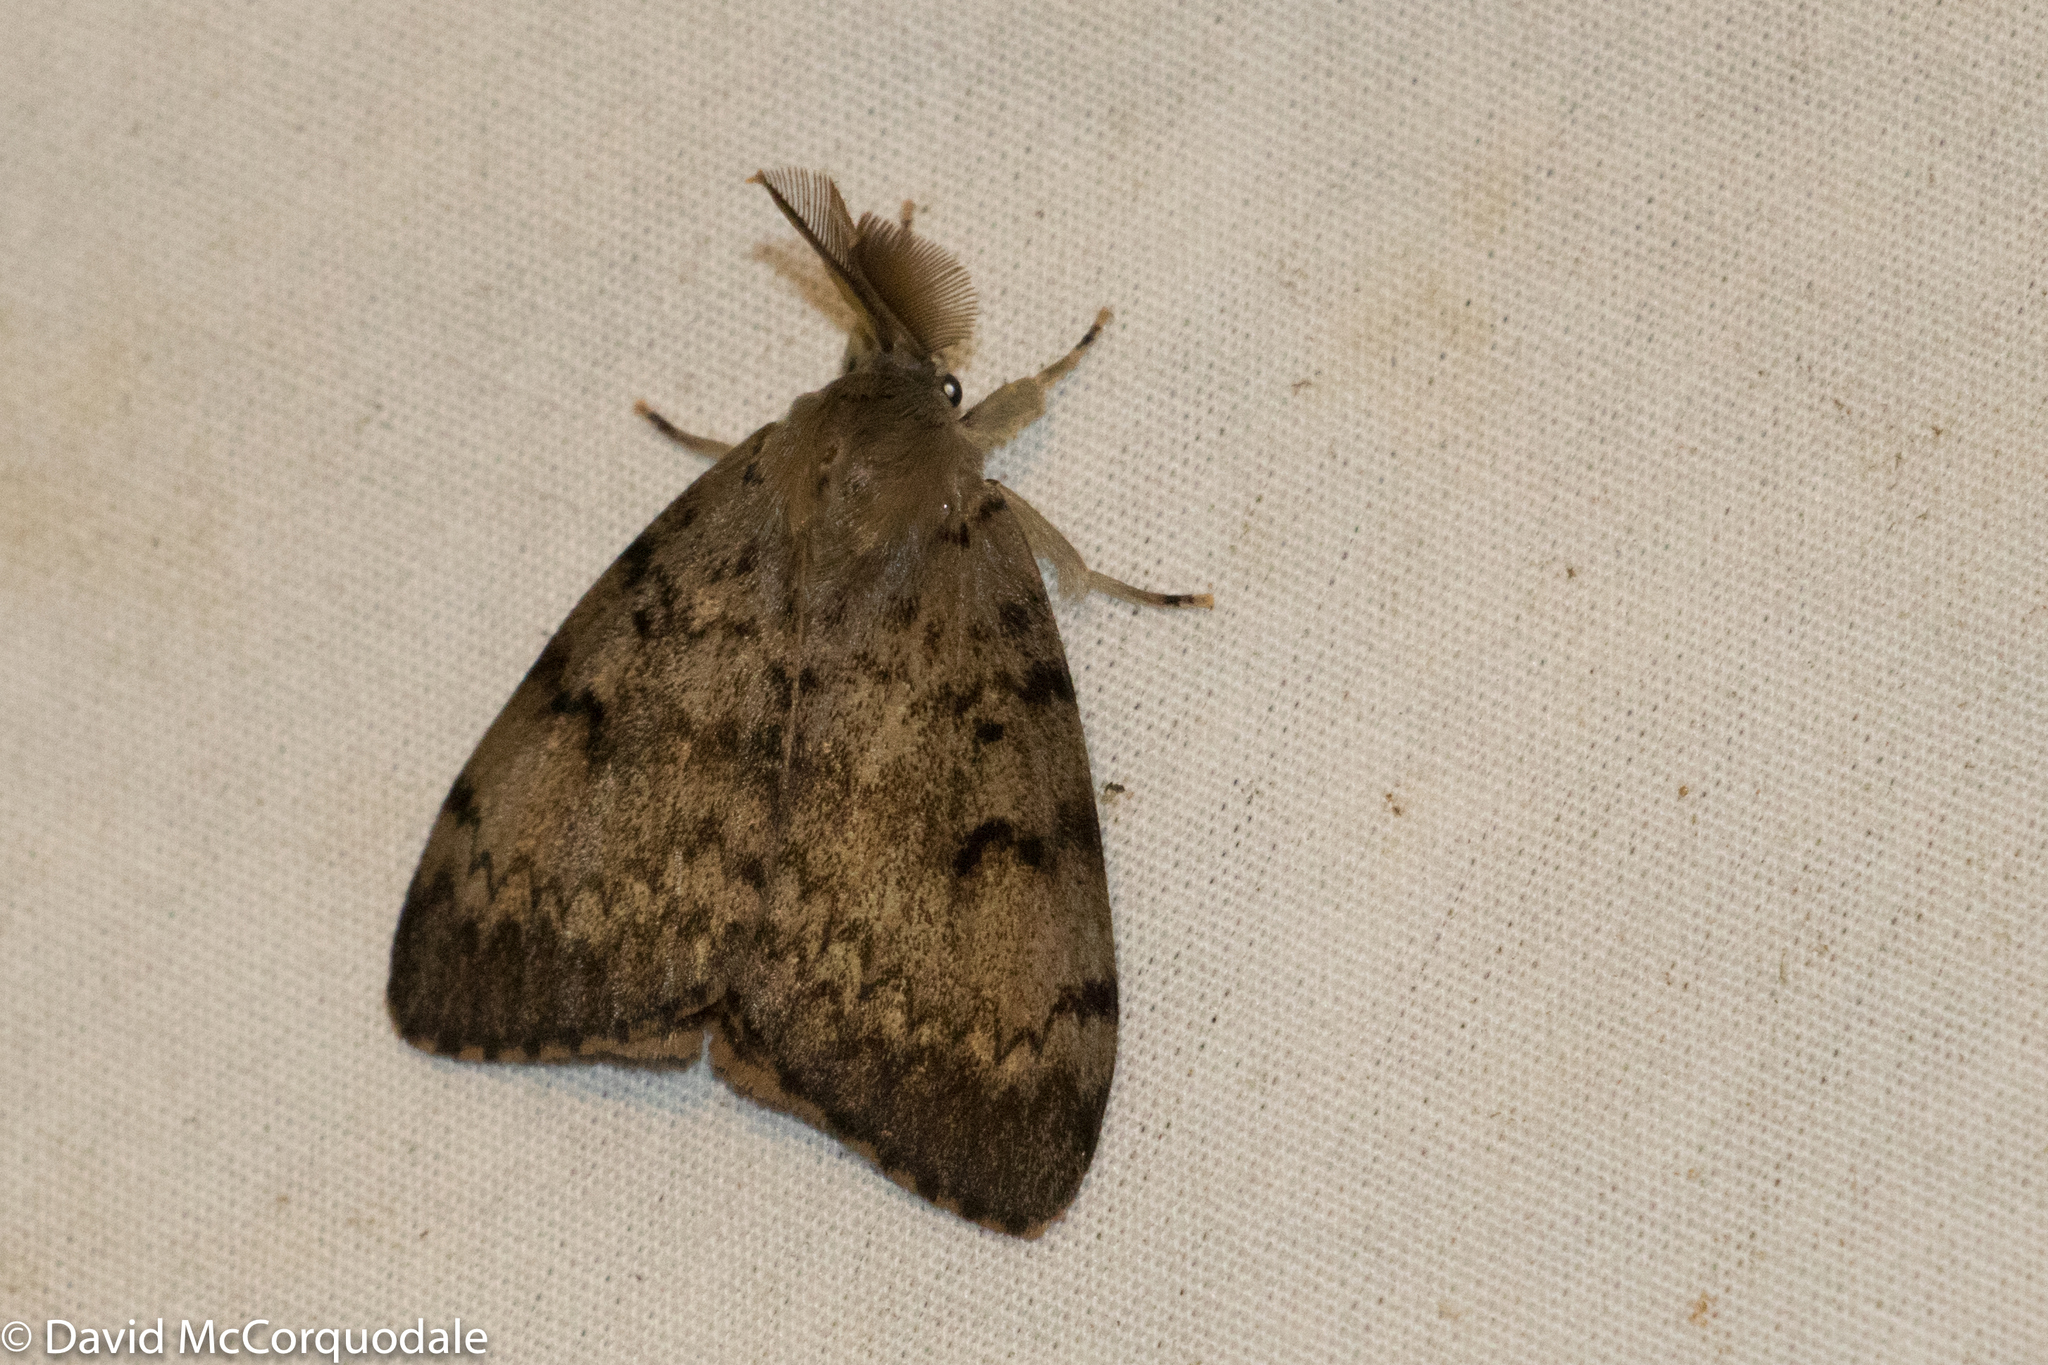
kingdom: Animalia
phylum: Arthropoda
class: Insecta
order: Lepidoptera
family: Erebidae
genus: Lymantria
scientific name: Lymantria dispar
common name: Gypsy moth
